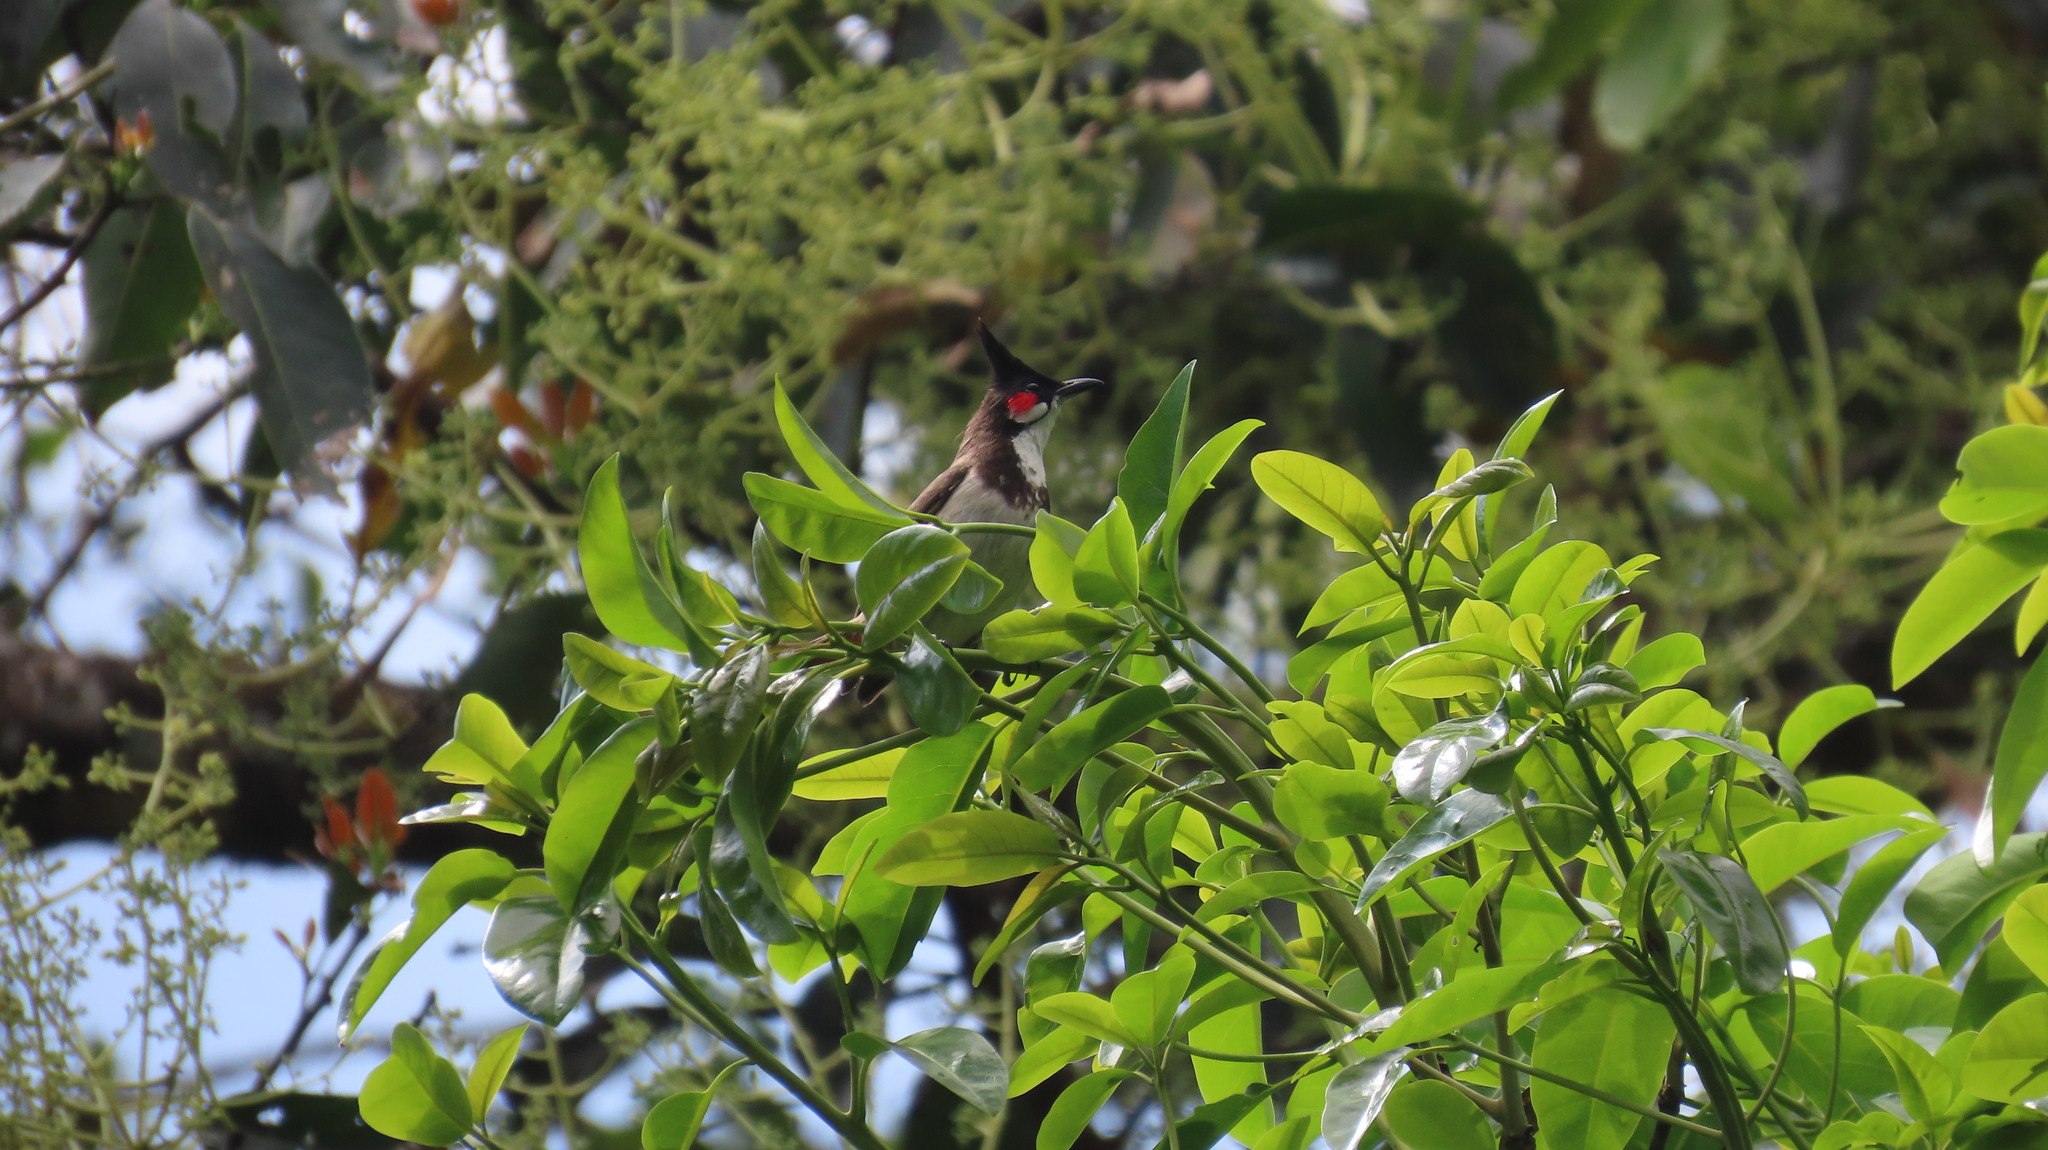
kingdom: Animalia
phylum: Chordata
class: Aves
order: Passeriformes
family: Pycnonotidae
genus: Pycnonotus
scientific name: Pycnonotus jocosus
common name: Red-whiskered bulbul
